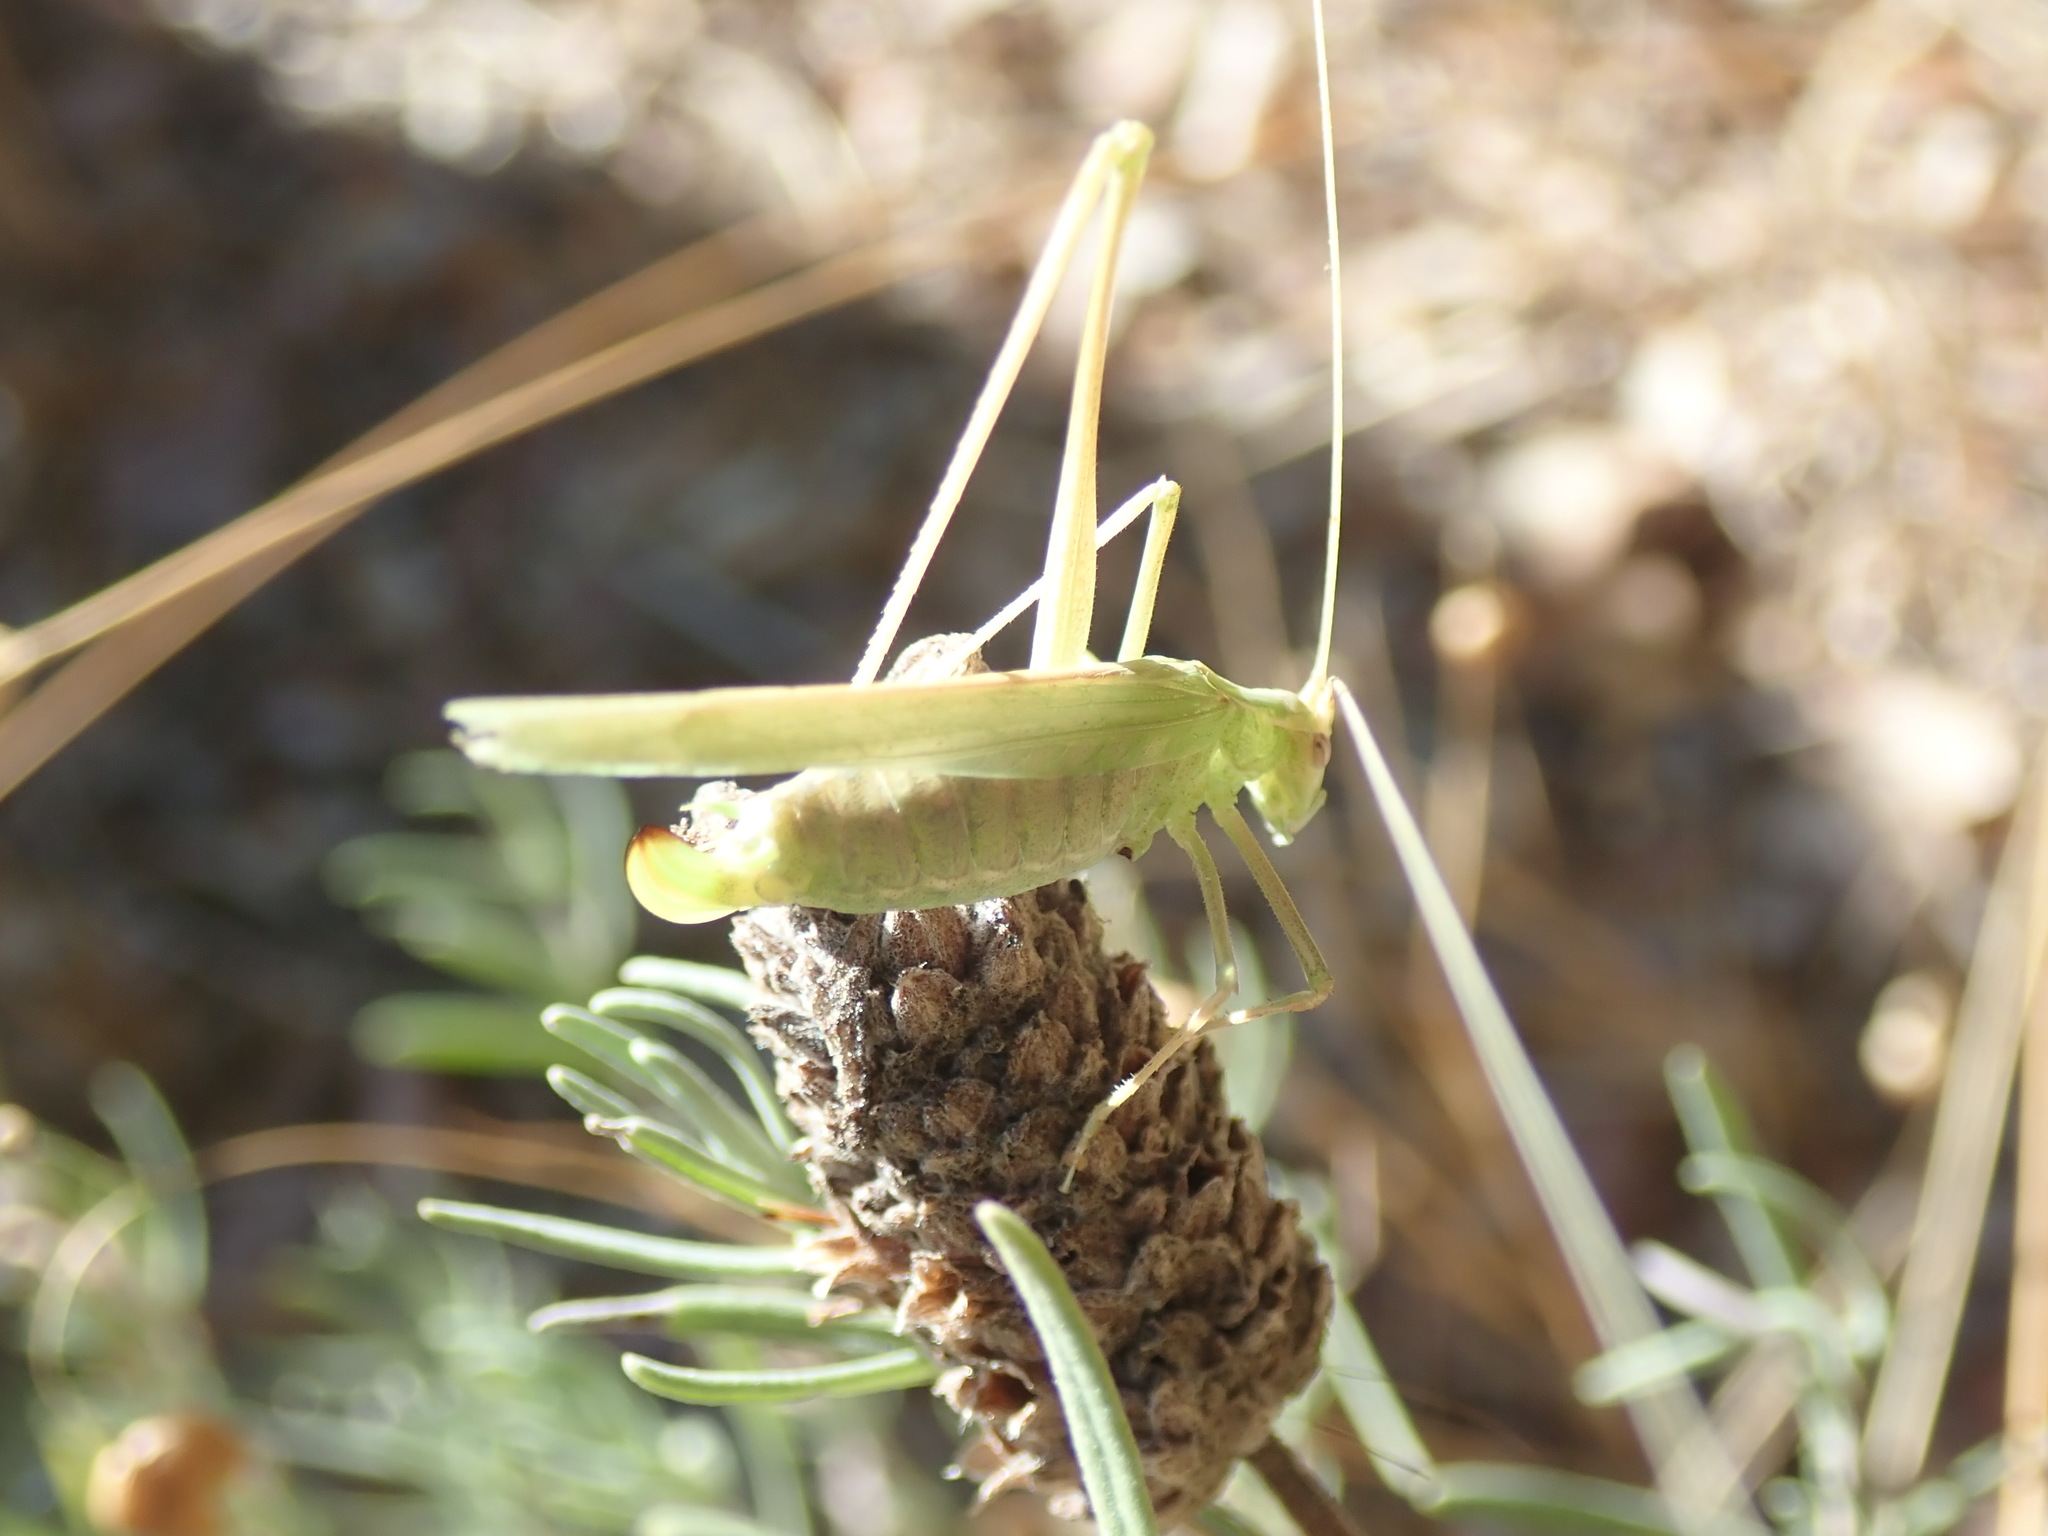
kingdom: Animalia
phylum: Arthropoda
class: Insecta
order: Orthoptera
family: Tettigoniidae
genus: Tylopsis
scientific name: Tylopsis lilifolia
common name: Lily bush-cricket
